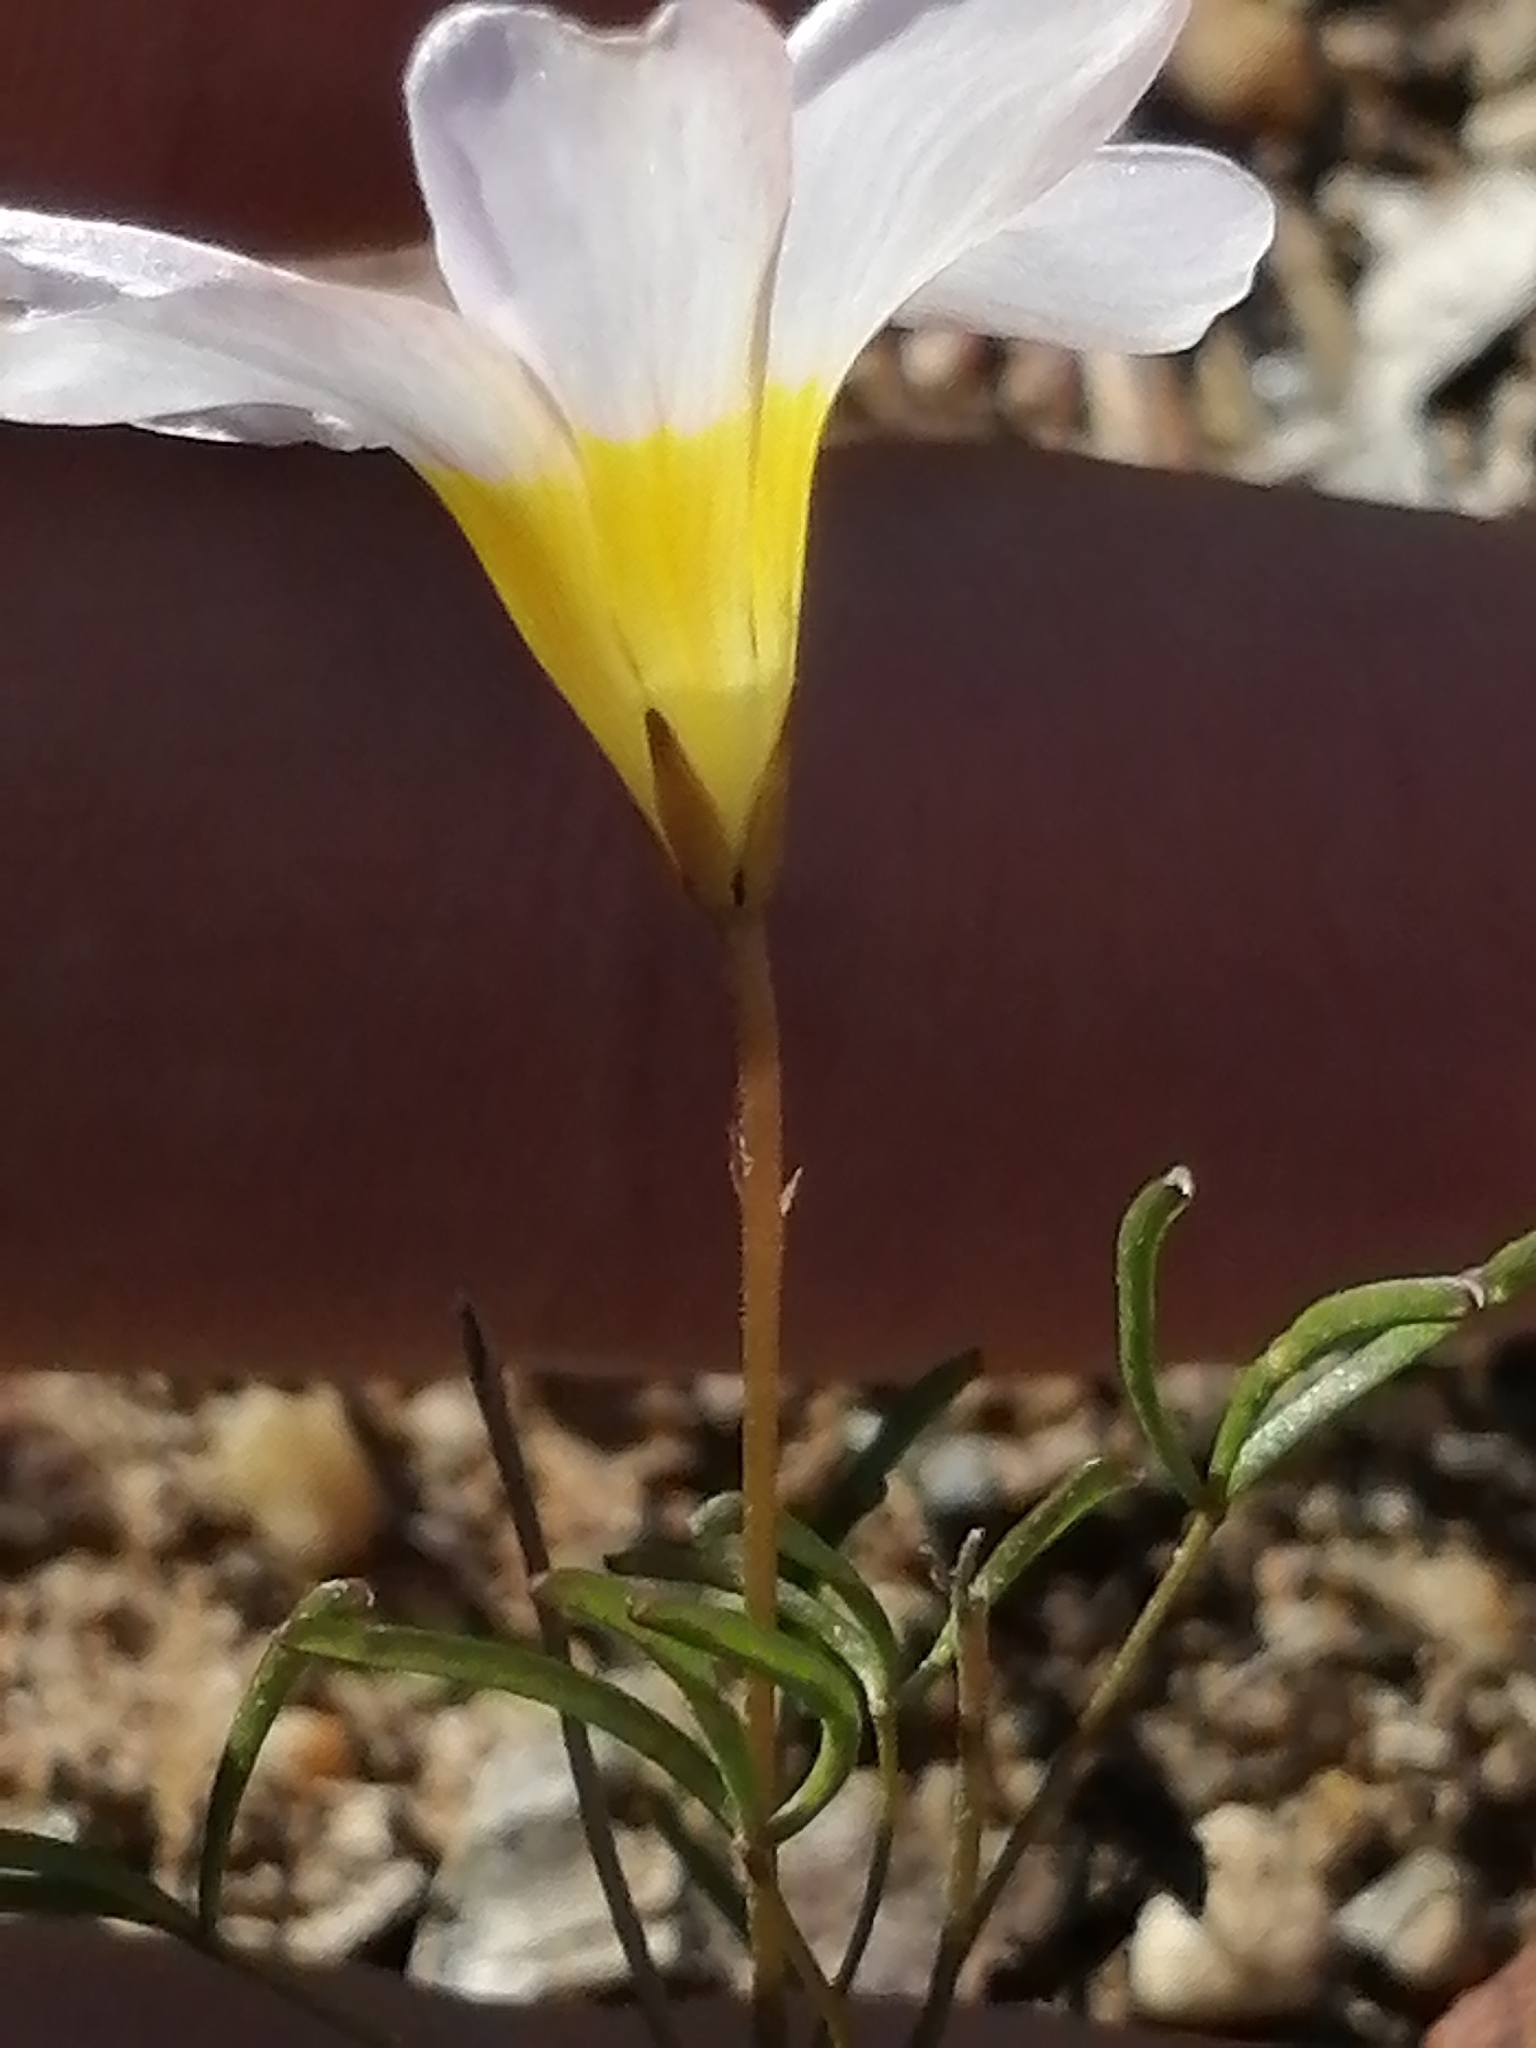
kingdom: Plantae
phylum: Tracheophyta
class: Magnoliopsida
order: Oxalidales
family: Oxalidaceae
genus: Oxalis
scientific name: Oxalis burkei
